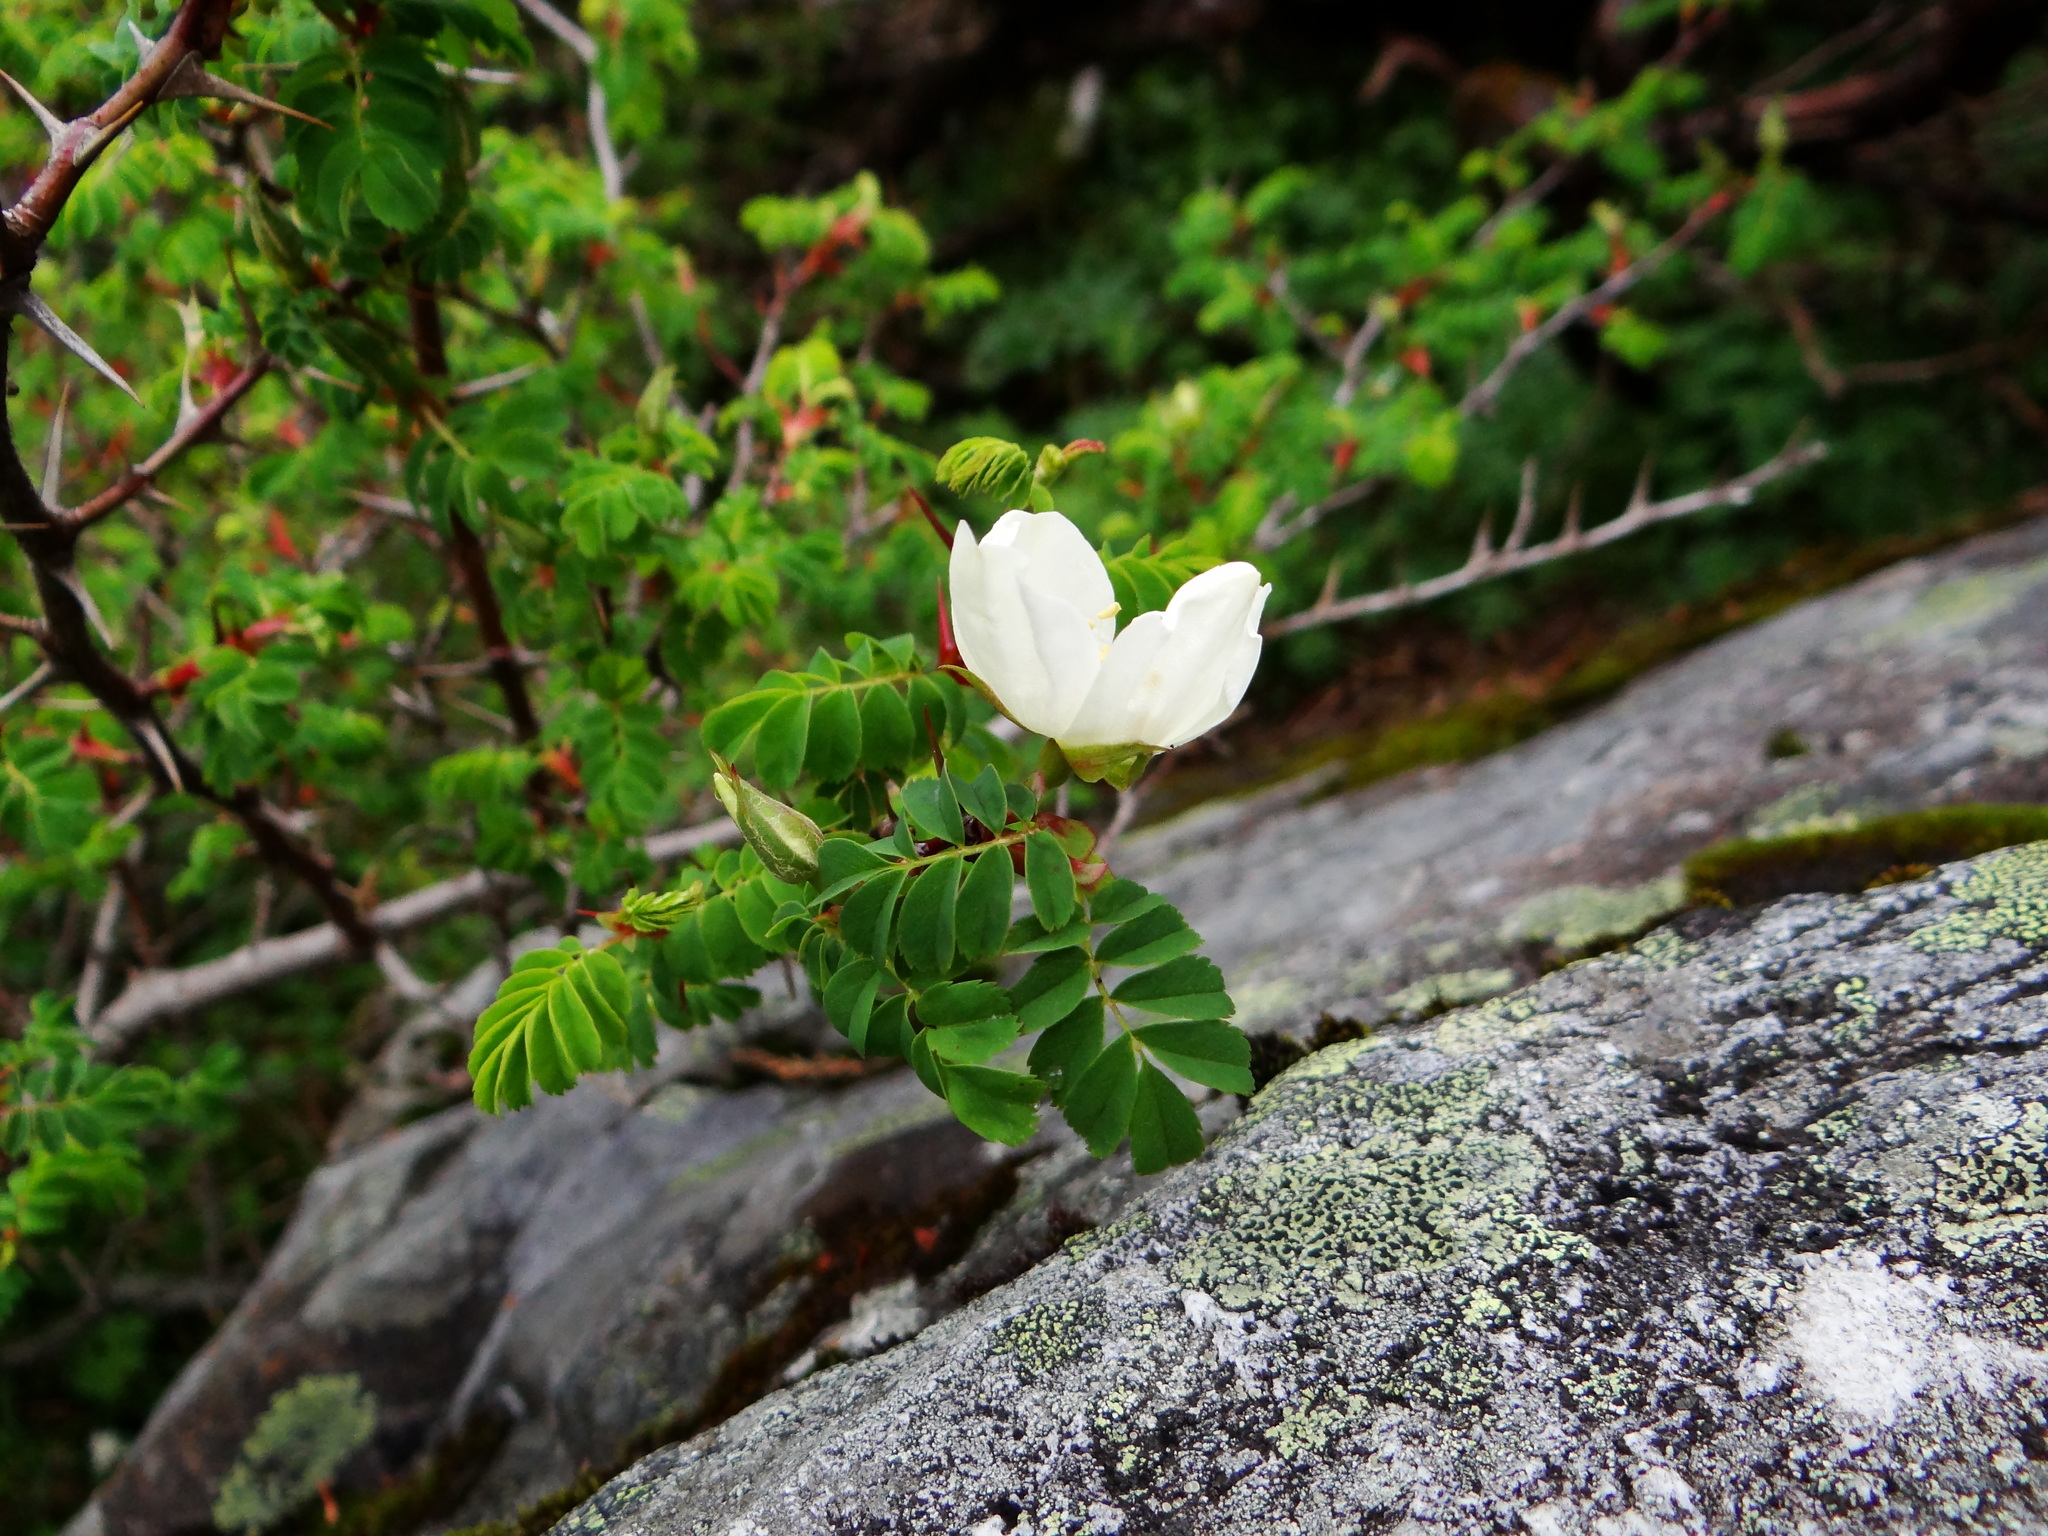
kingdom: Plantae
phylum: Tracheophyta
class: Magnoliopsida
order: Rosales
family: Rosaceae
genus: Rosa
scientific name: Rosa morrisonensis
